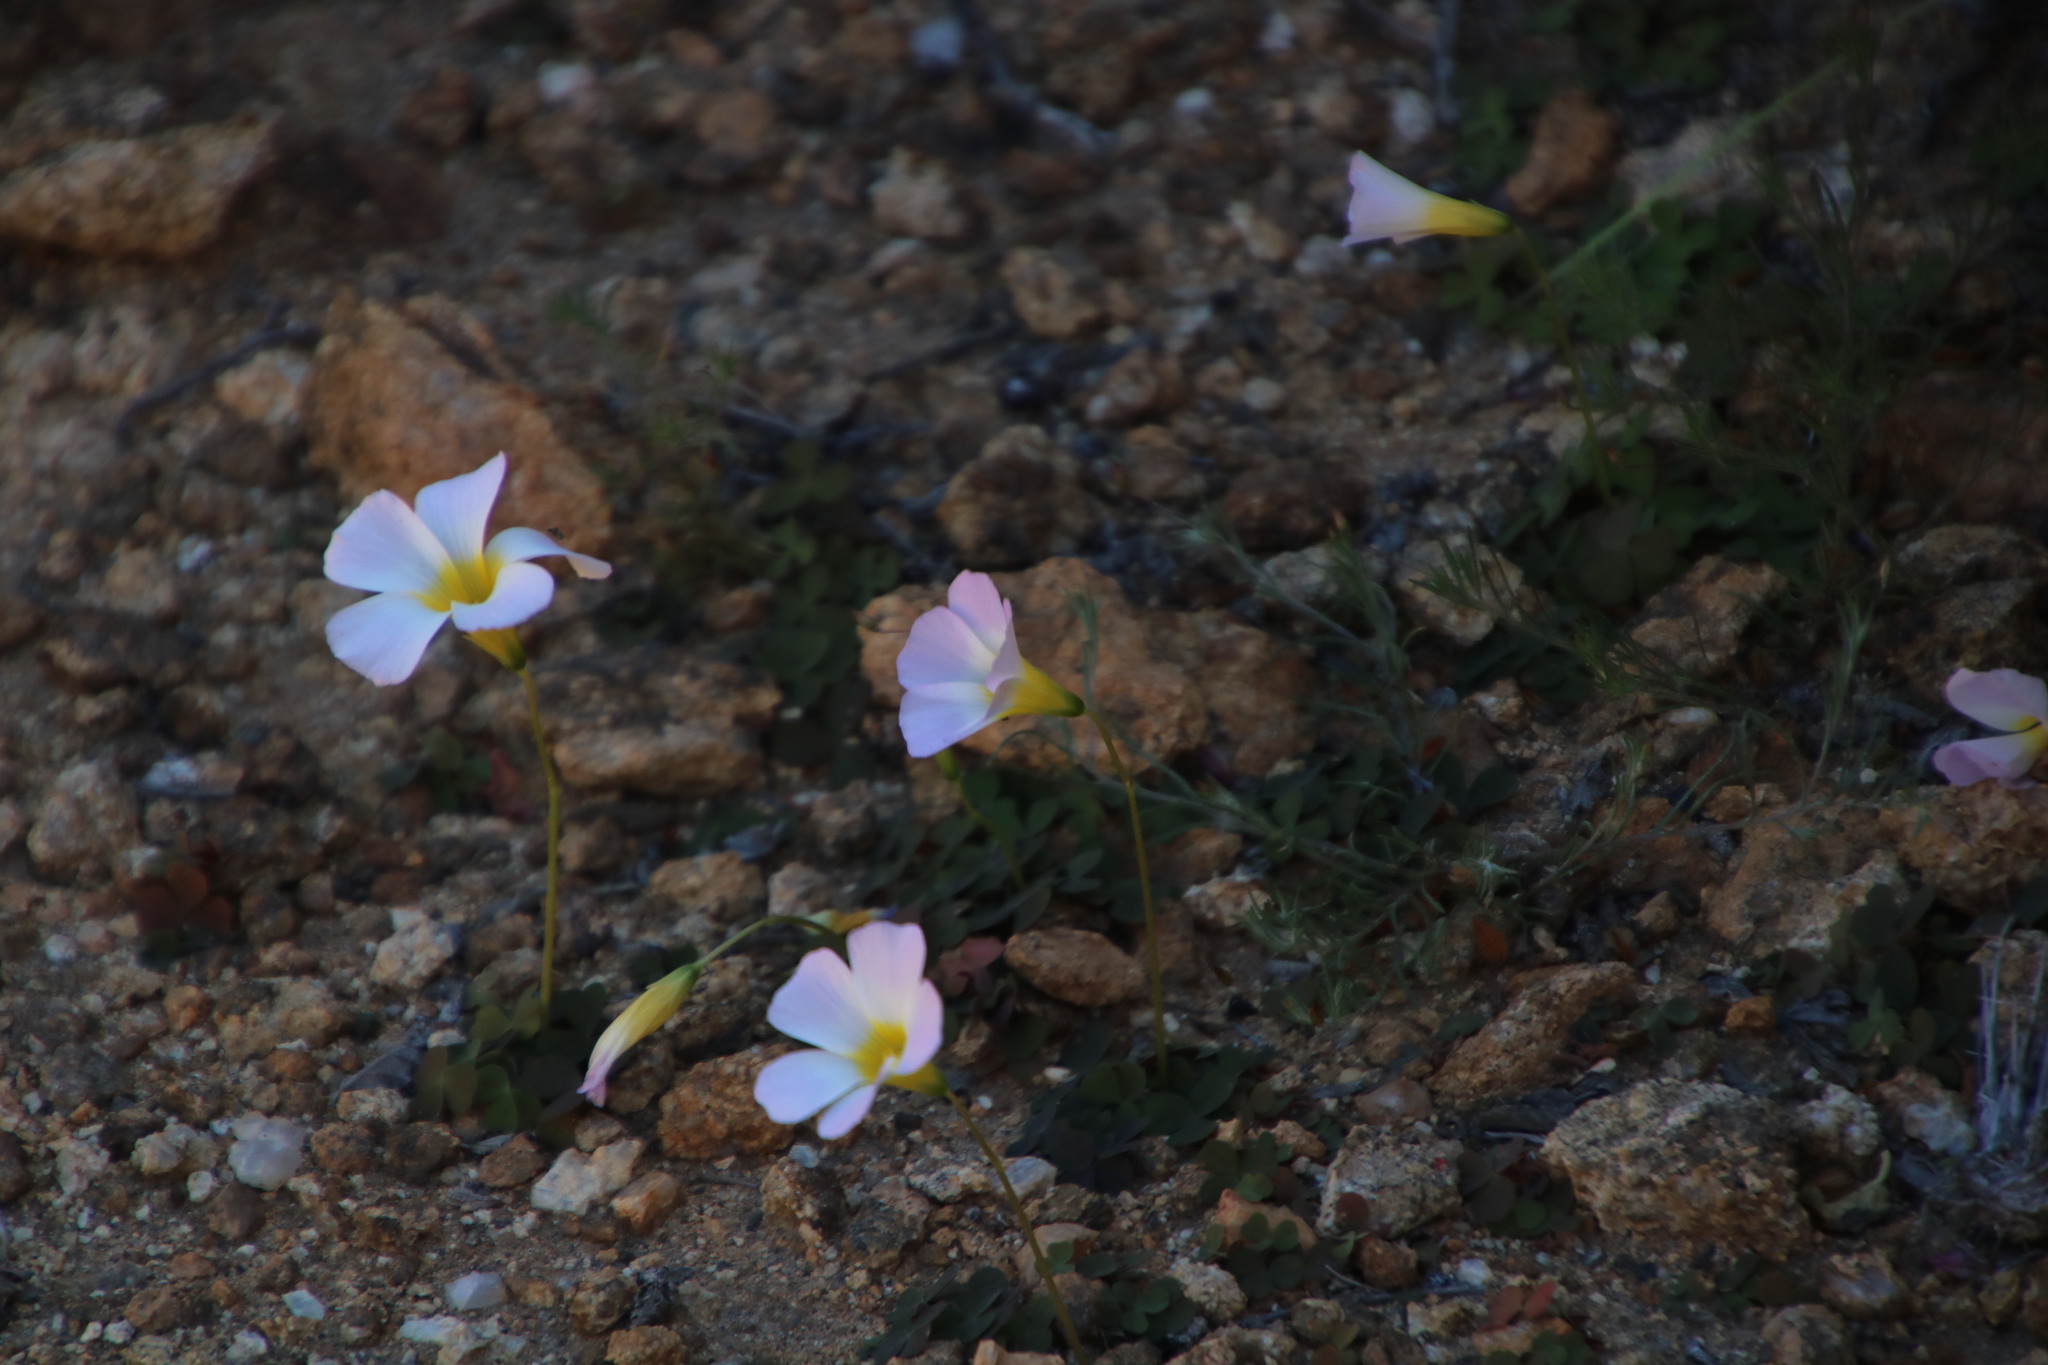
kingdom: Plantae
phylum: Tracheophyta
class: Magnoliopsida
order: Oxalidales
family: Oxalidaceae
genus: Oxalis
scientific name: Oxalis obtusa
